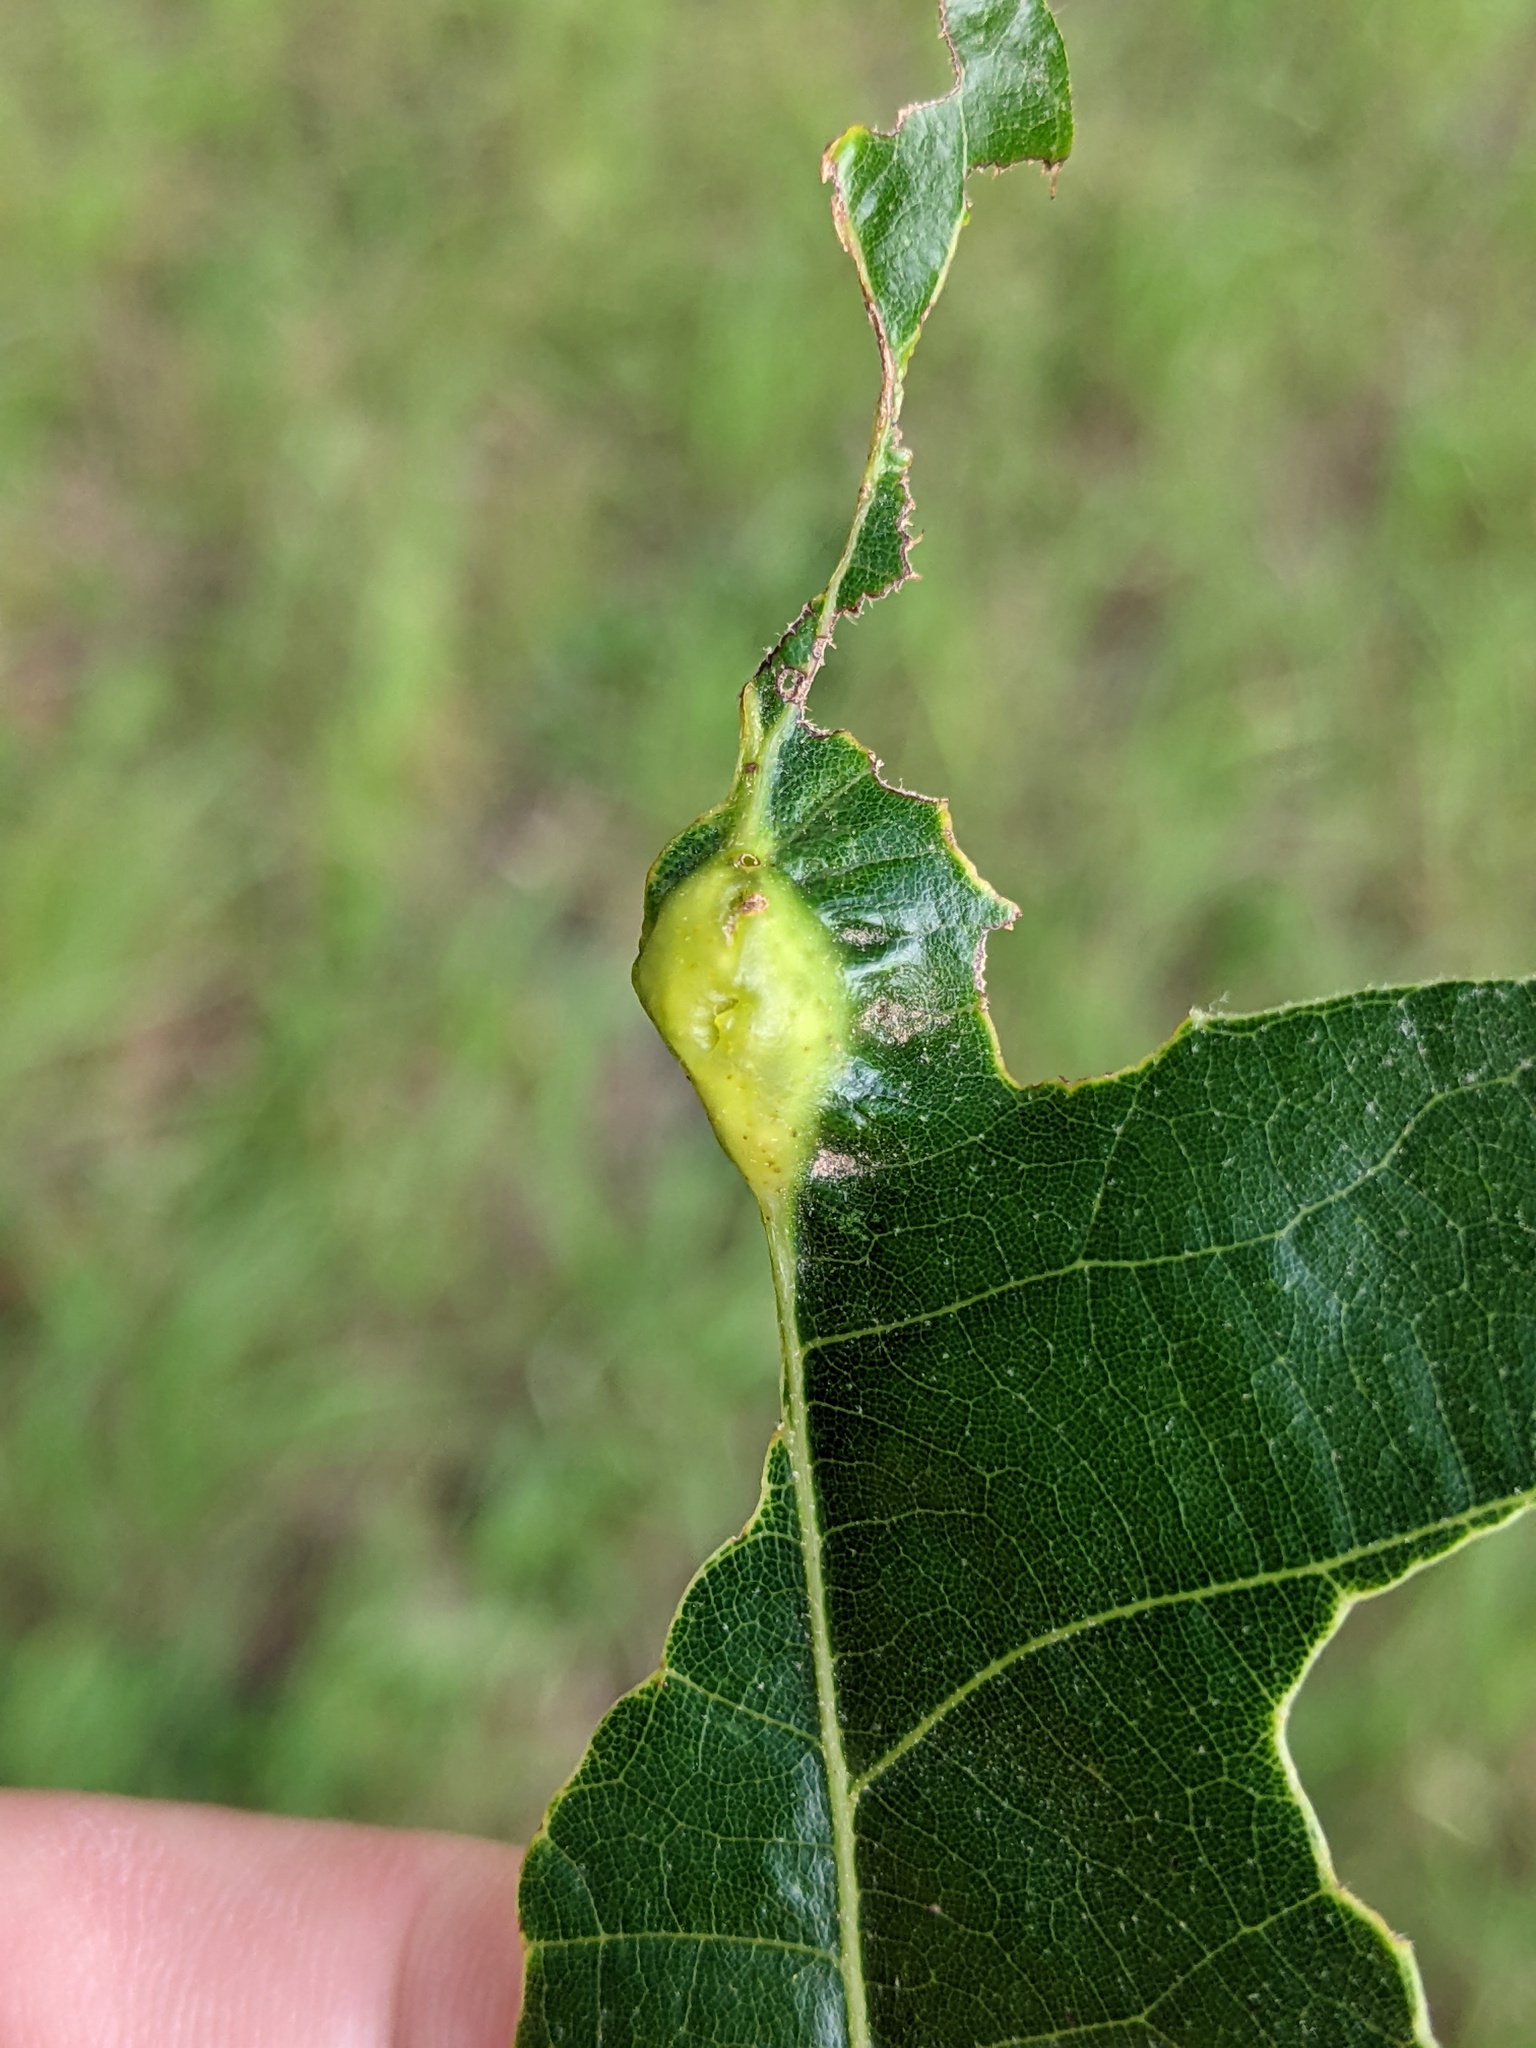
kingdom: Animalia
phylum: Arthropoda
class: Insecta
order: Hymenoptera
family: Cynipidae
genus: Bassettia
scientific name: Bassettia flavipes
